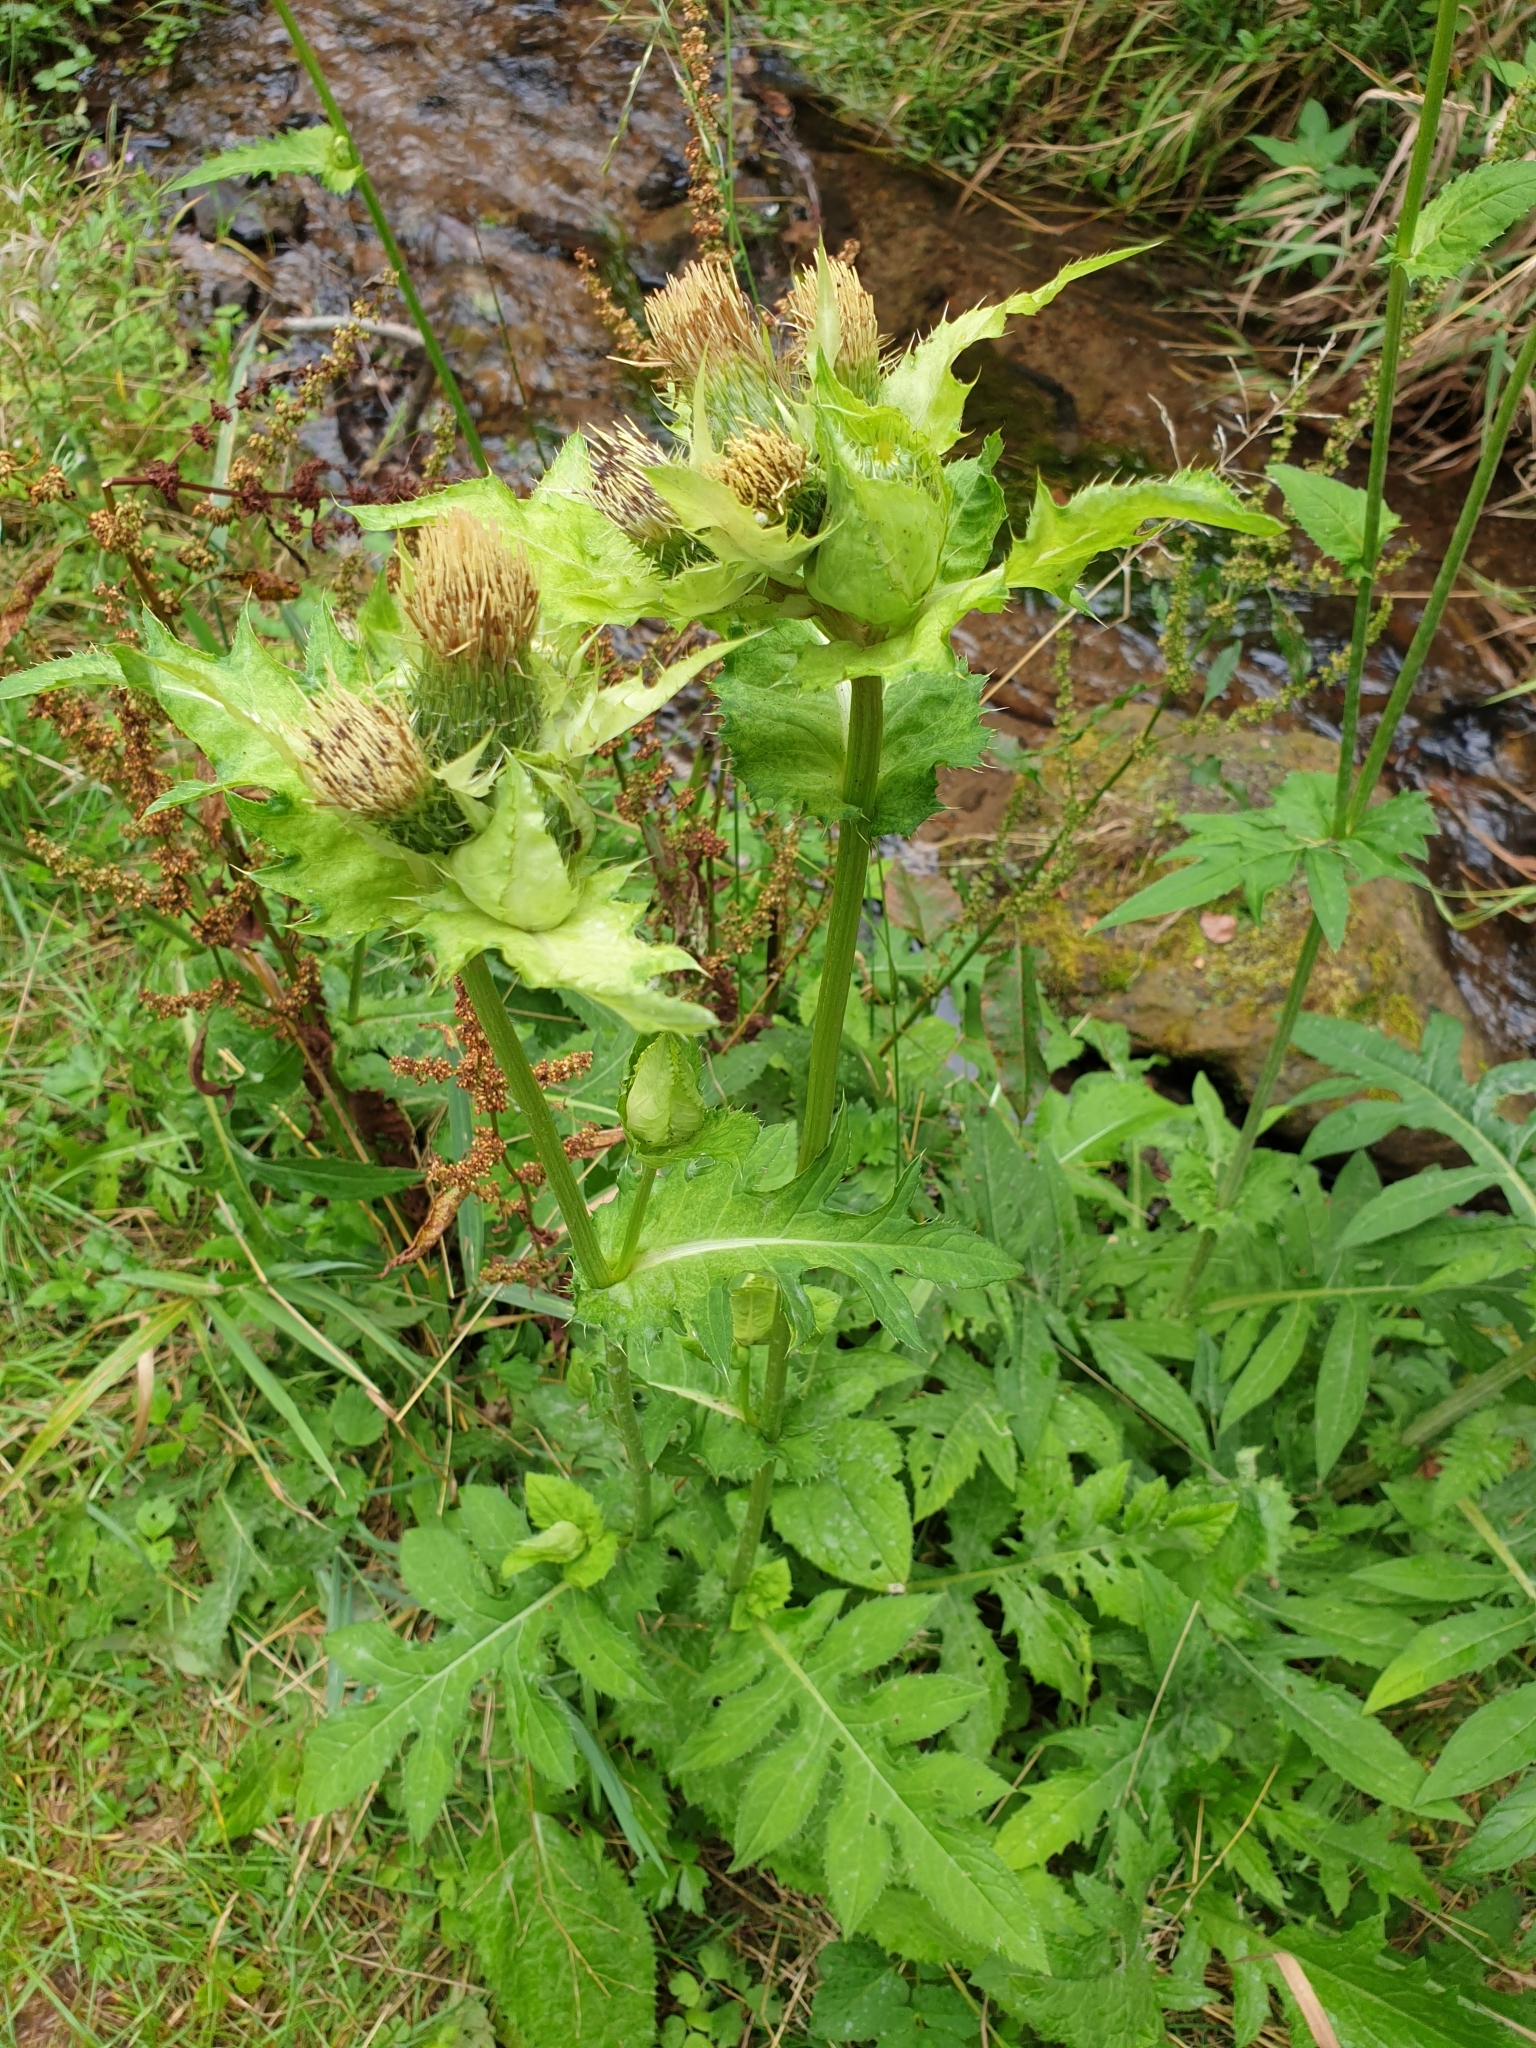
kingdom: Plantae
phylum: Tracheophyta
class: Magnoliopsida
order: Asterales
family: Asteraceae
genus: Cirsium
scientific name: Cirsium oleraceum
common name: Cabbage thistle
